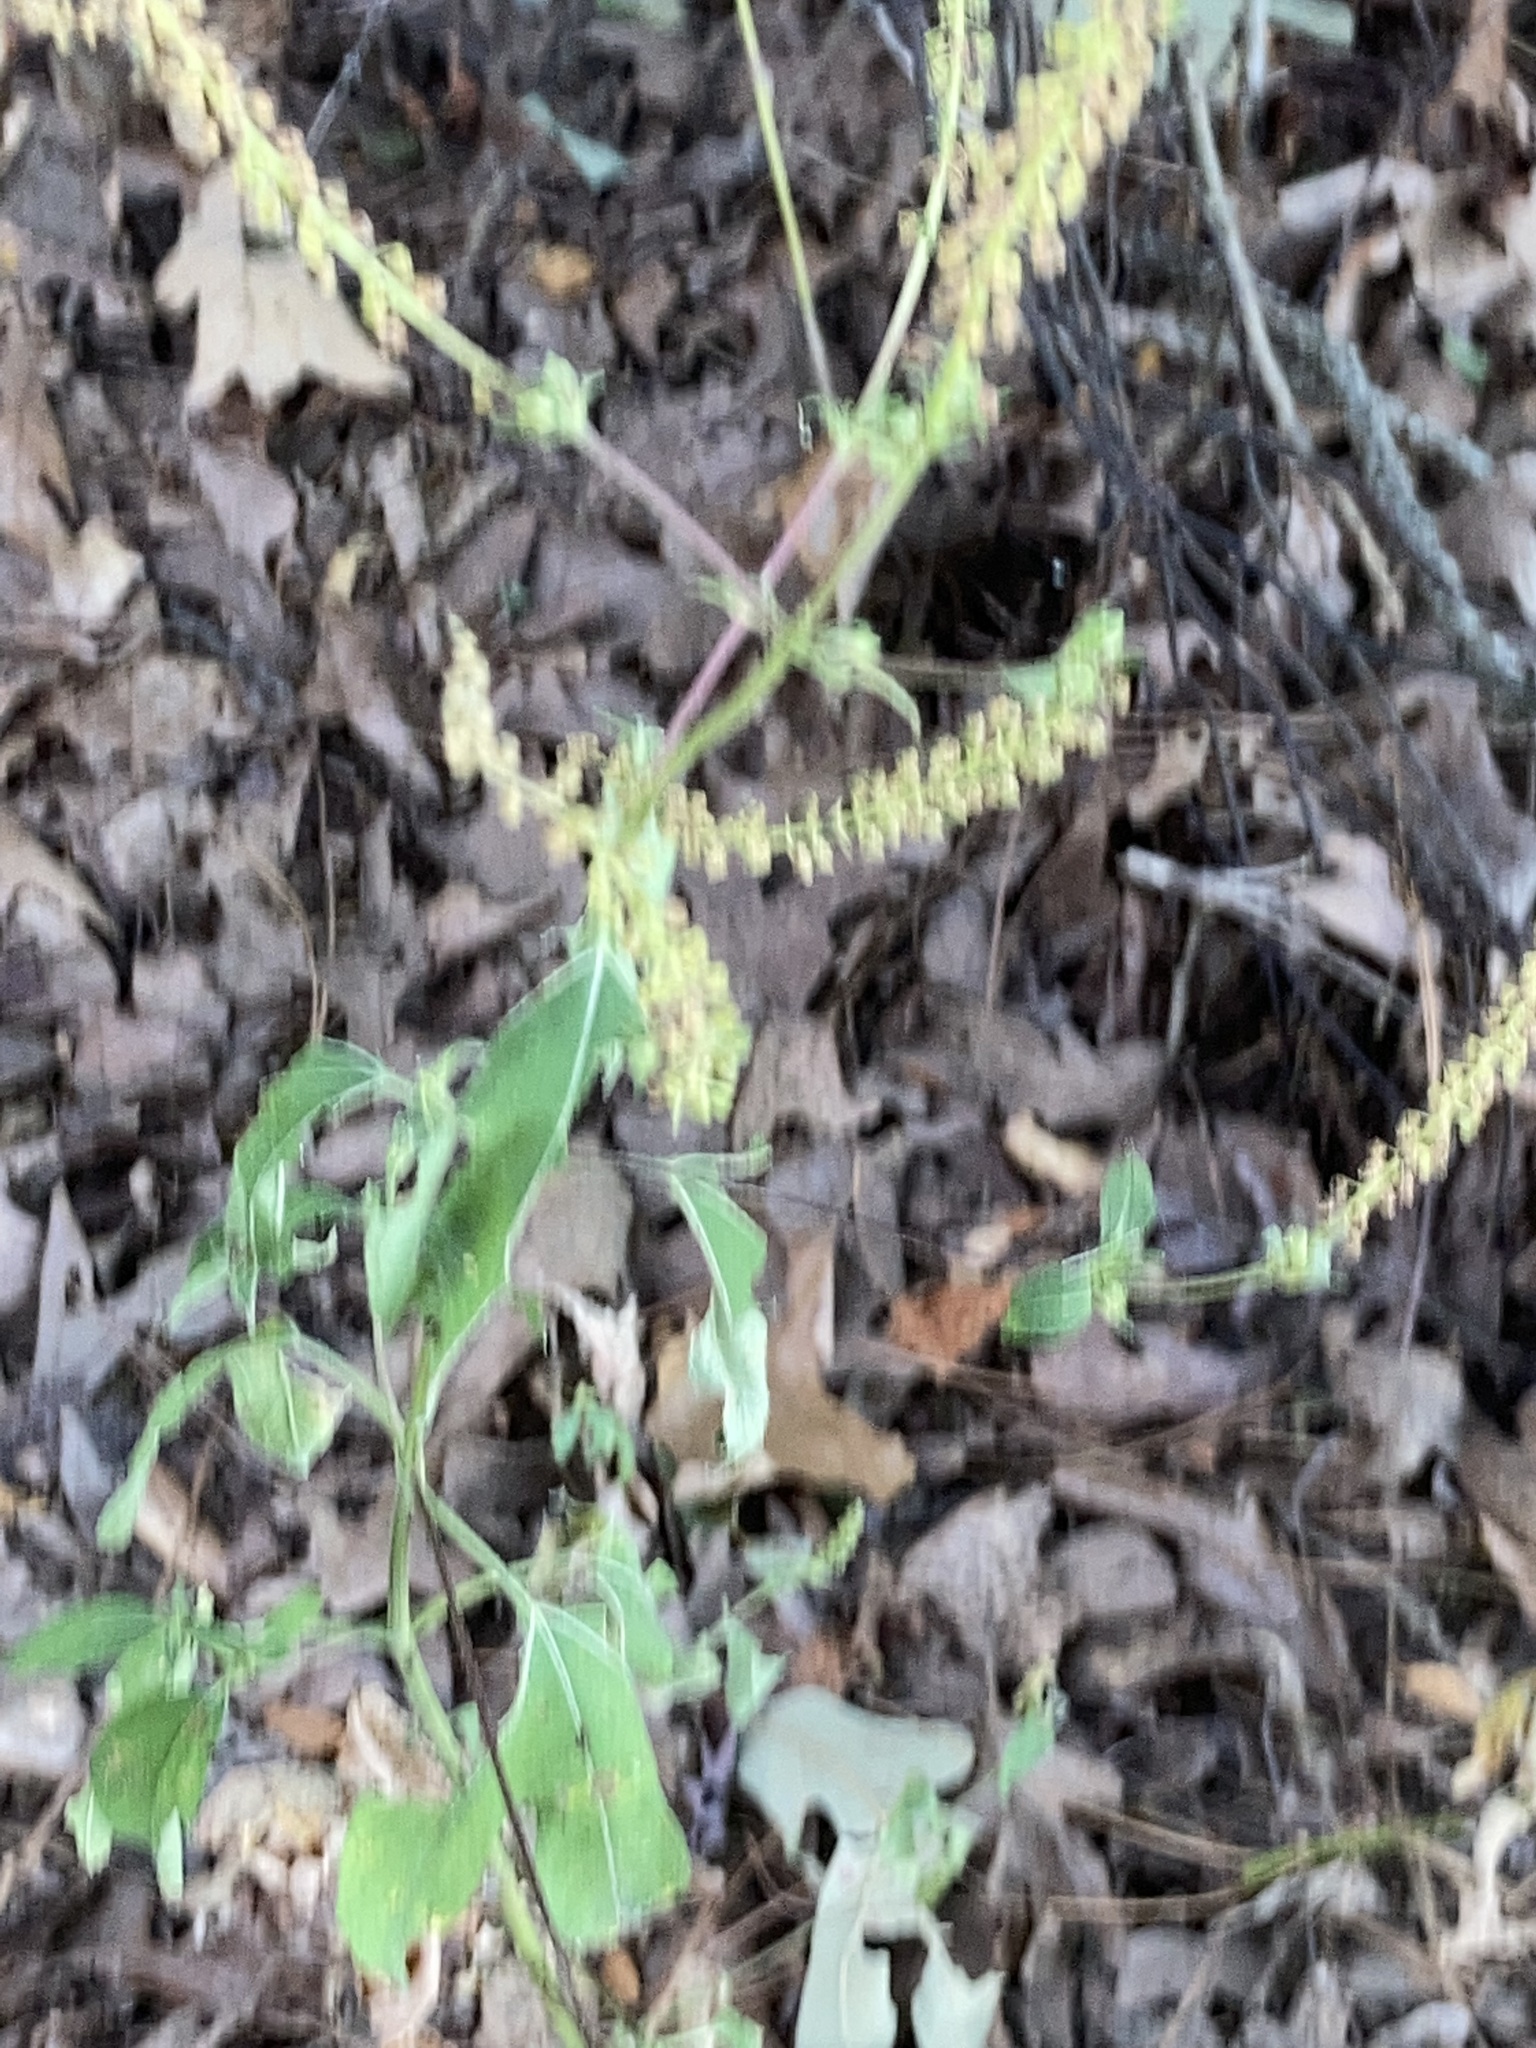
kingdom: Plantae
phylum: Tracheophyta
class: Magnoliopsida
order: Asterales
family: Asteraceae
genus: Ambrosia
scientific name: Ambrosia trifida
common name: Giant ragweed
